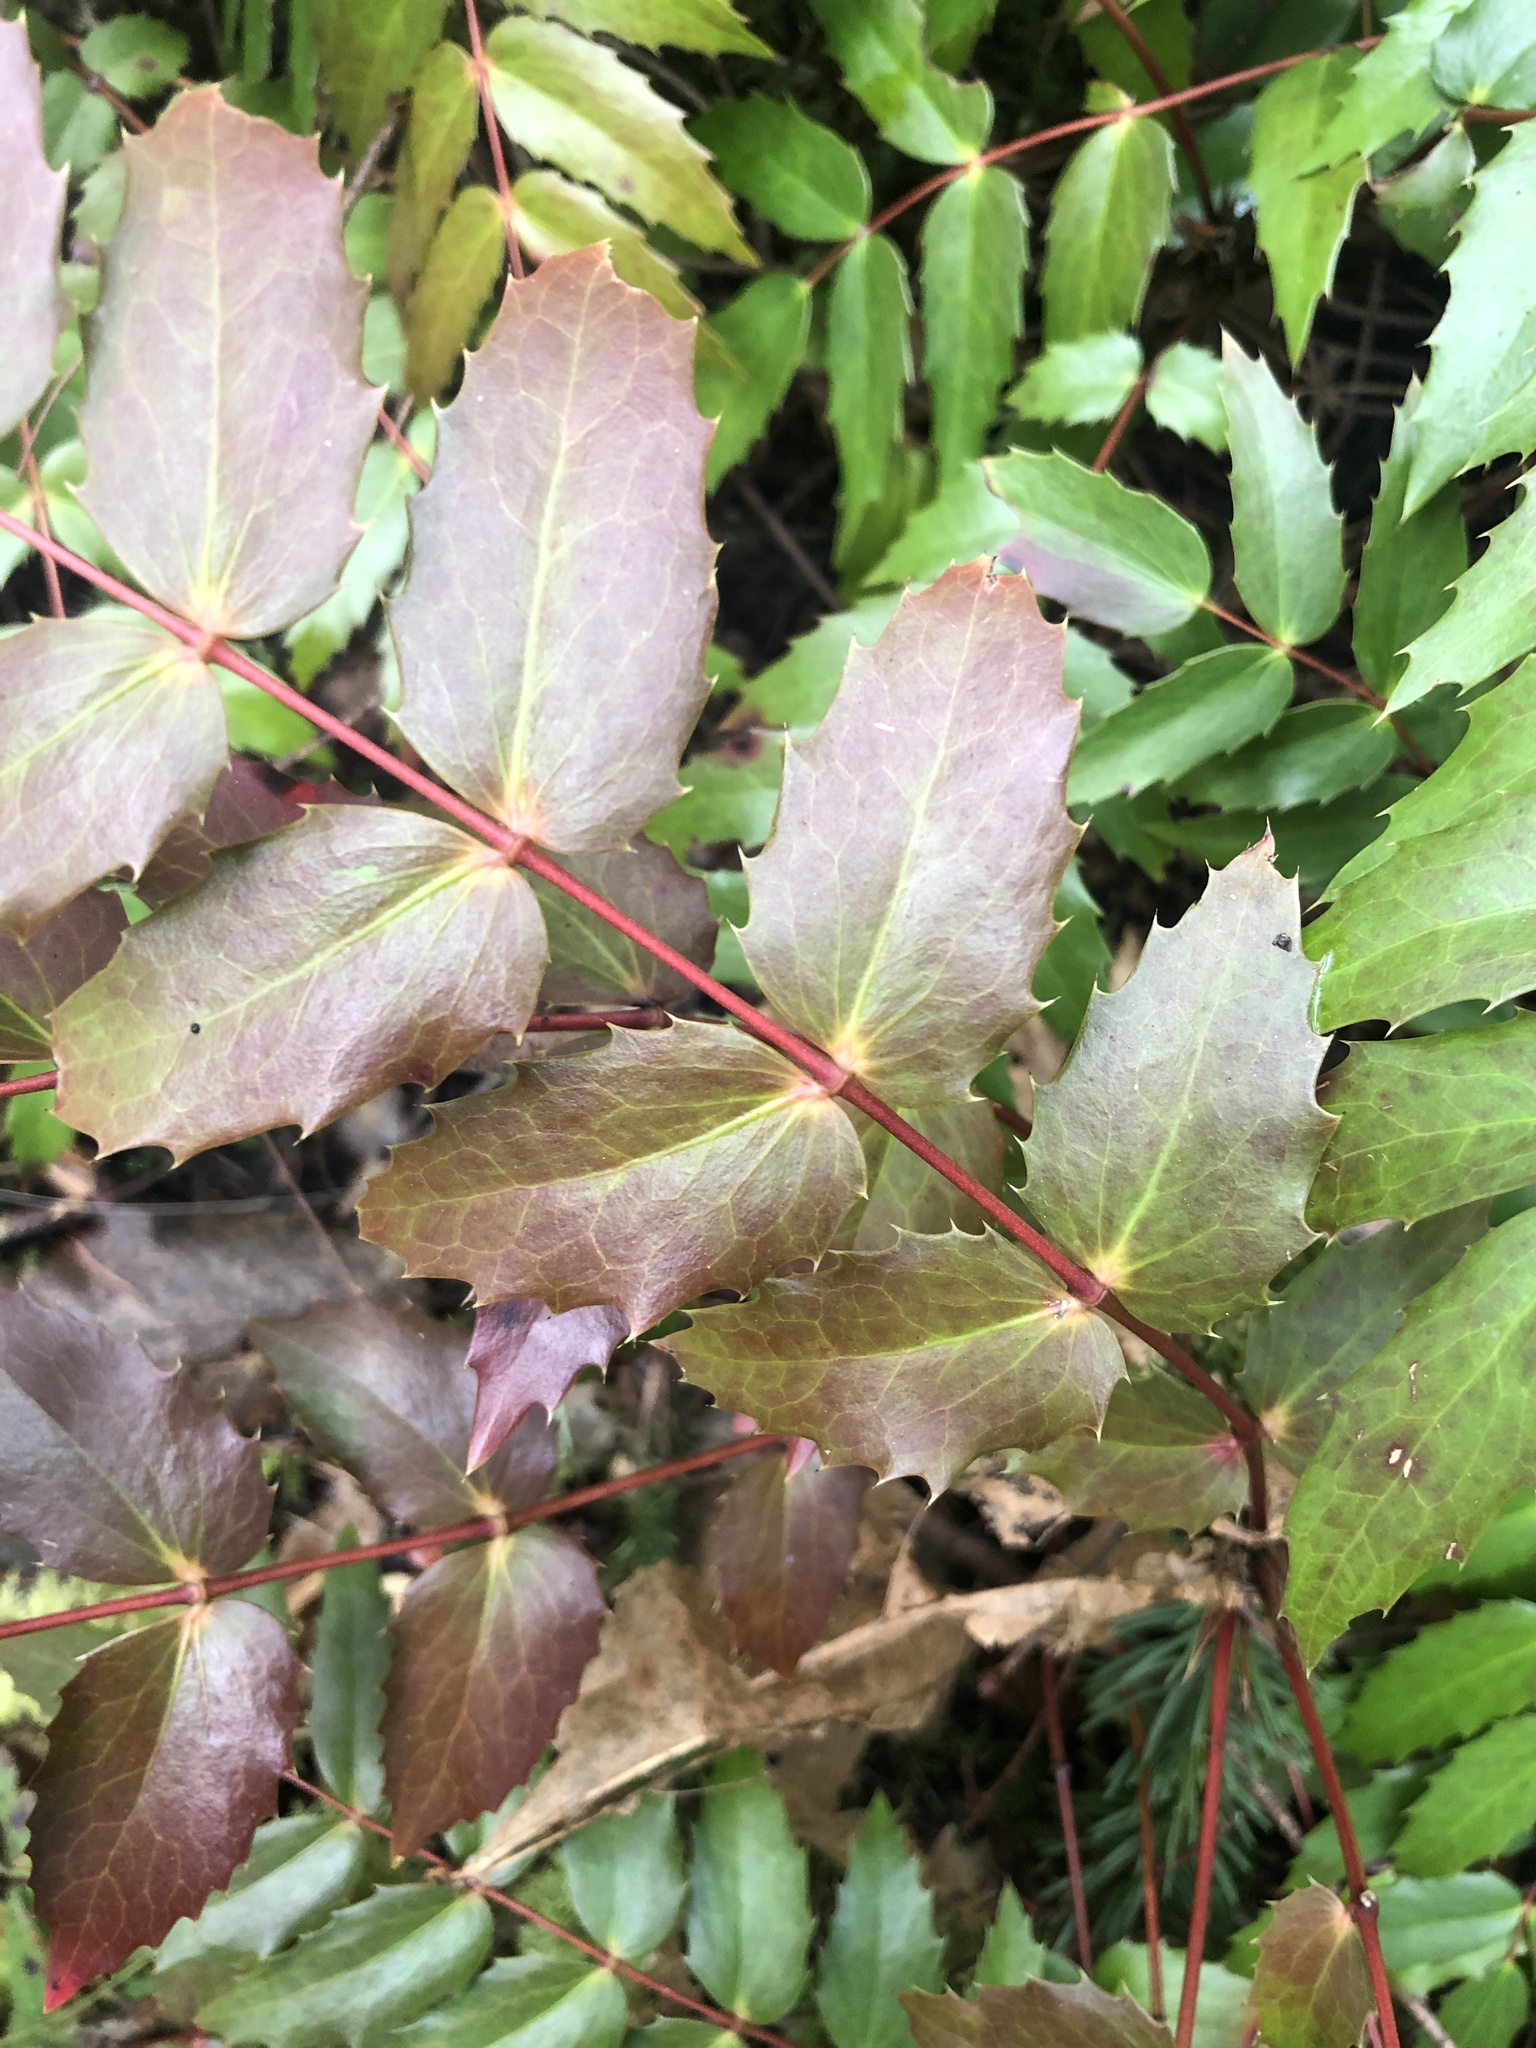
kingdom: Plantae
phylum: Tracheophyta
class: Magnoliopsida
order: Ranunculales
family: Berberidaceae
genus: Mahonia
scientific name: Mahonia nervosa
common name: Cascade oregon-grape
